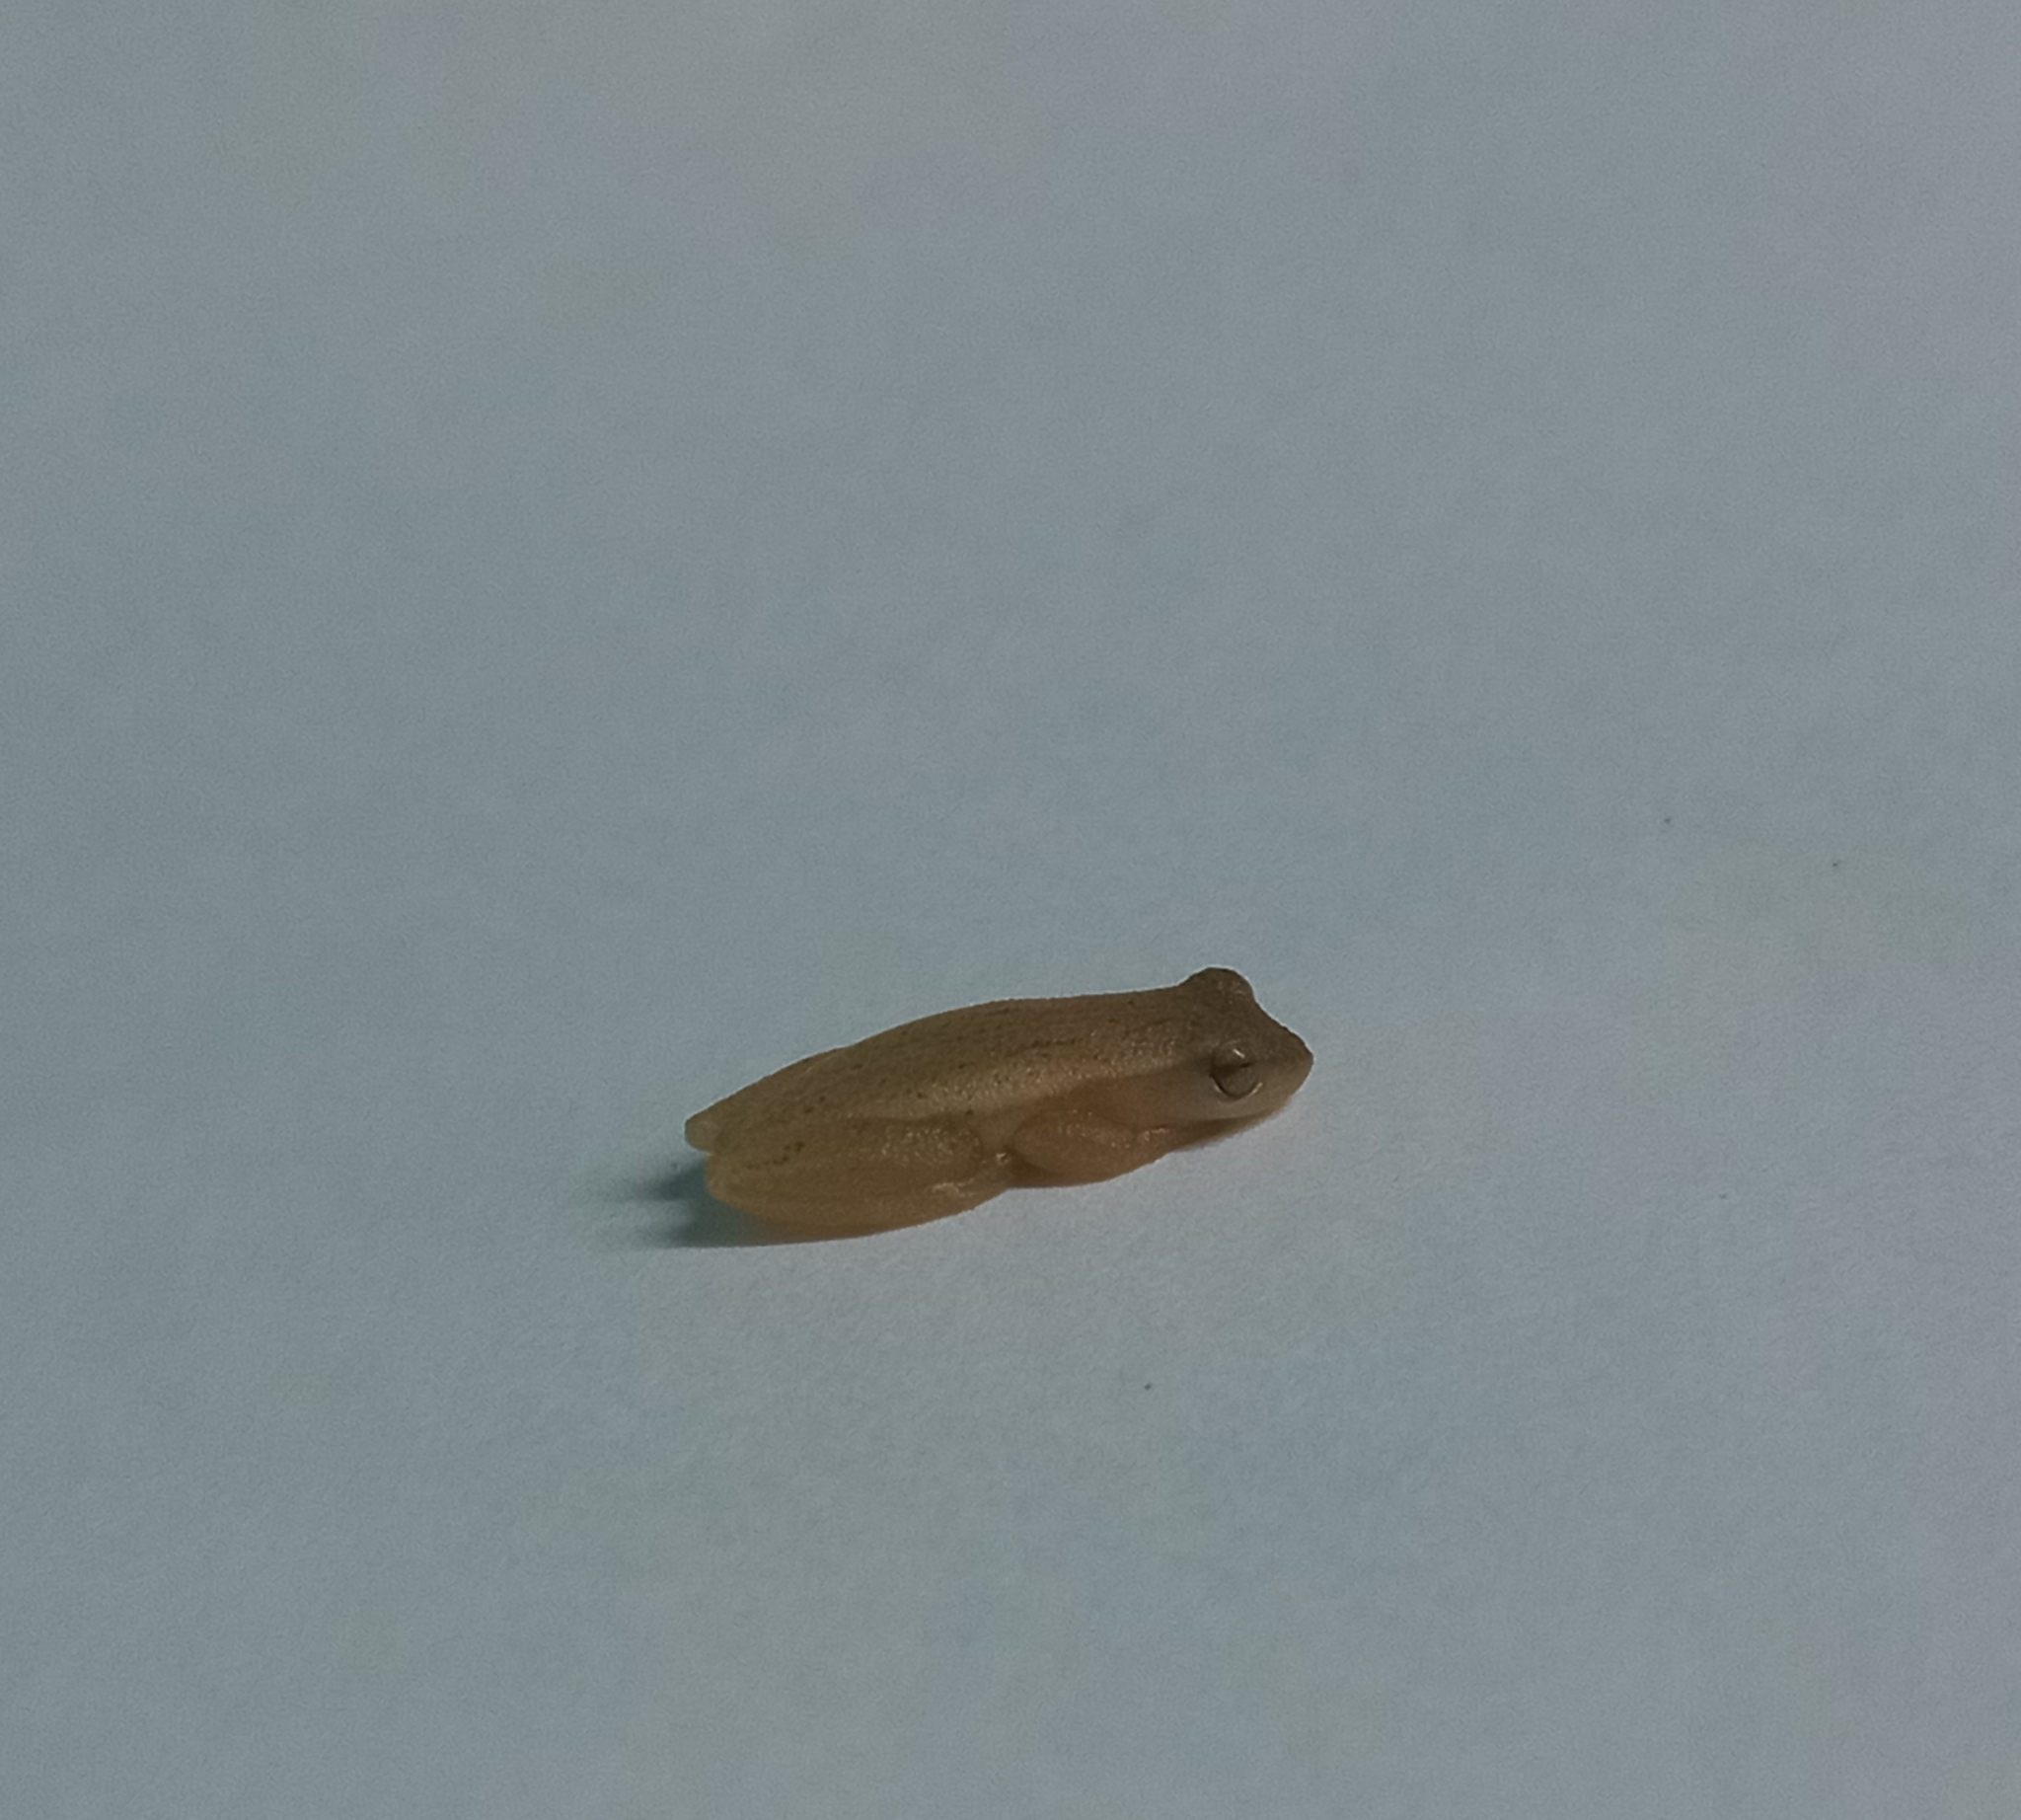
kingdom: Animalia
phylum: Chordata
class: Amphibia
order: Anura
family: Hylidae
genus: Dendropsophus
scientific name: Dendropsophus sanborni
